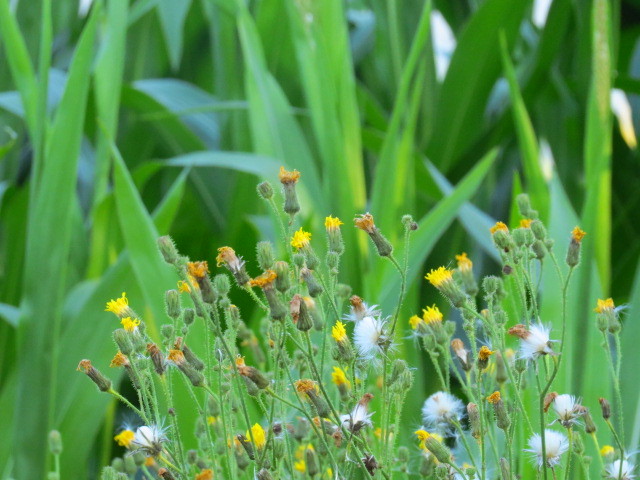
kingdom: Plantae
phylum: Tracheophyta
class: Magnoliopsida
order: Asterales
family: Asteraceae
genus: Cirsium
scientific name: Cirsium arvense
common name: Creeping thistle
